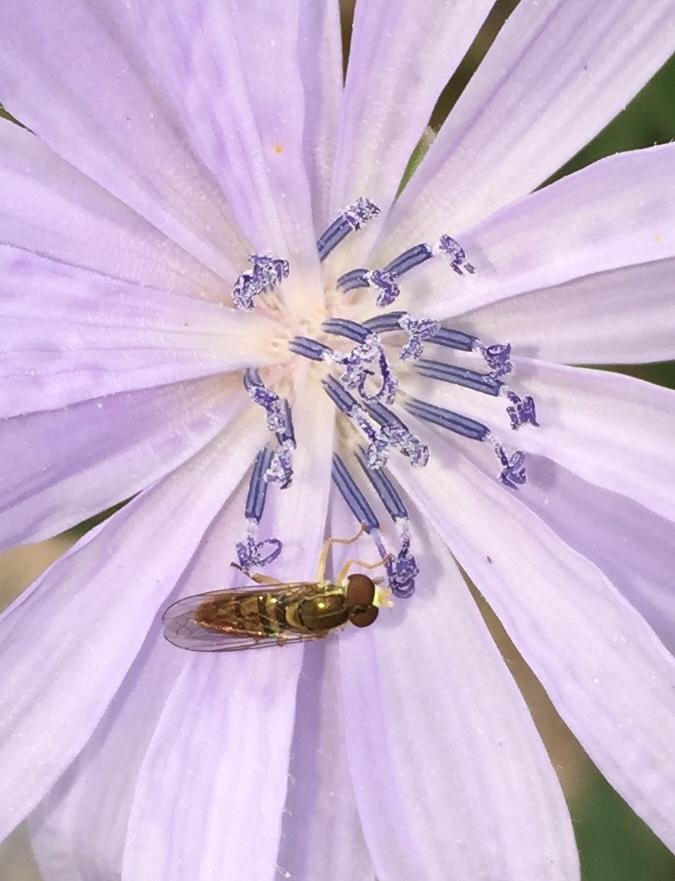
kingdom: Animalia
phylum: Arthropoda
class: Insecta
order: Diptera
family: Syrphidae
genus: Toxomerus
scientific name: Toxomerus marginatus
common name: Syrphid fly
